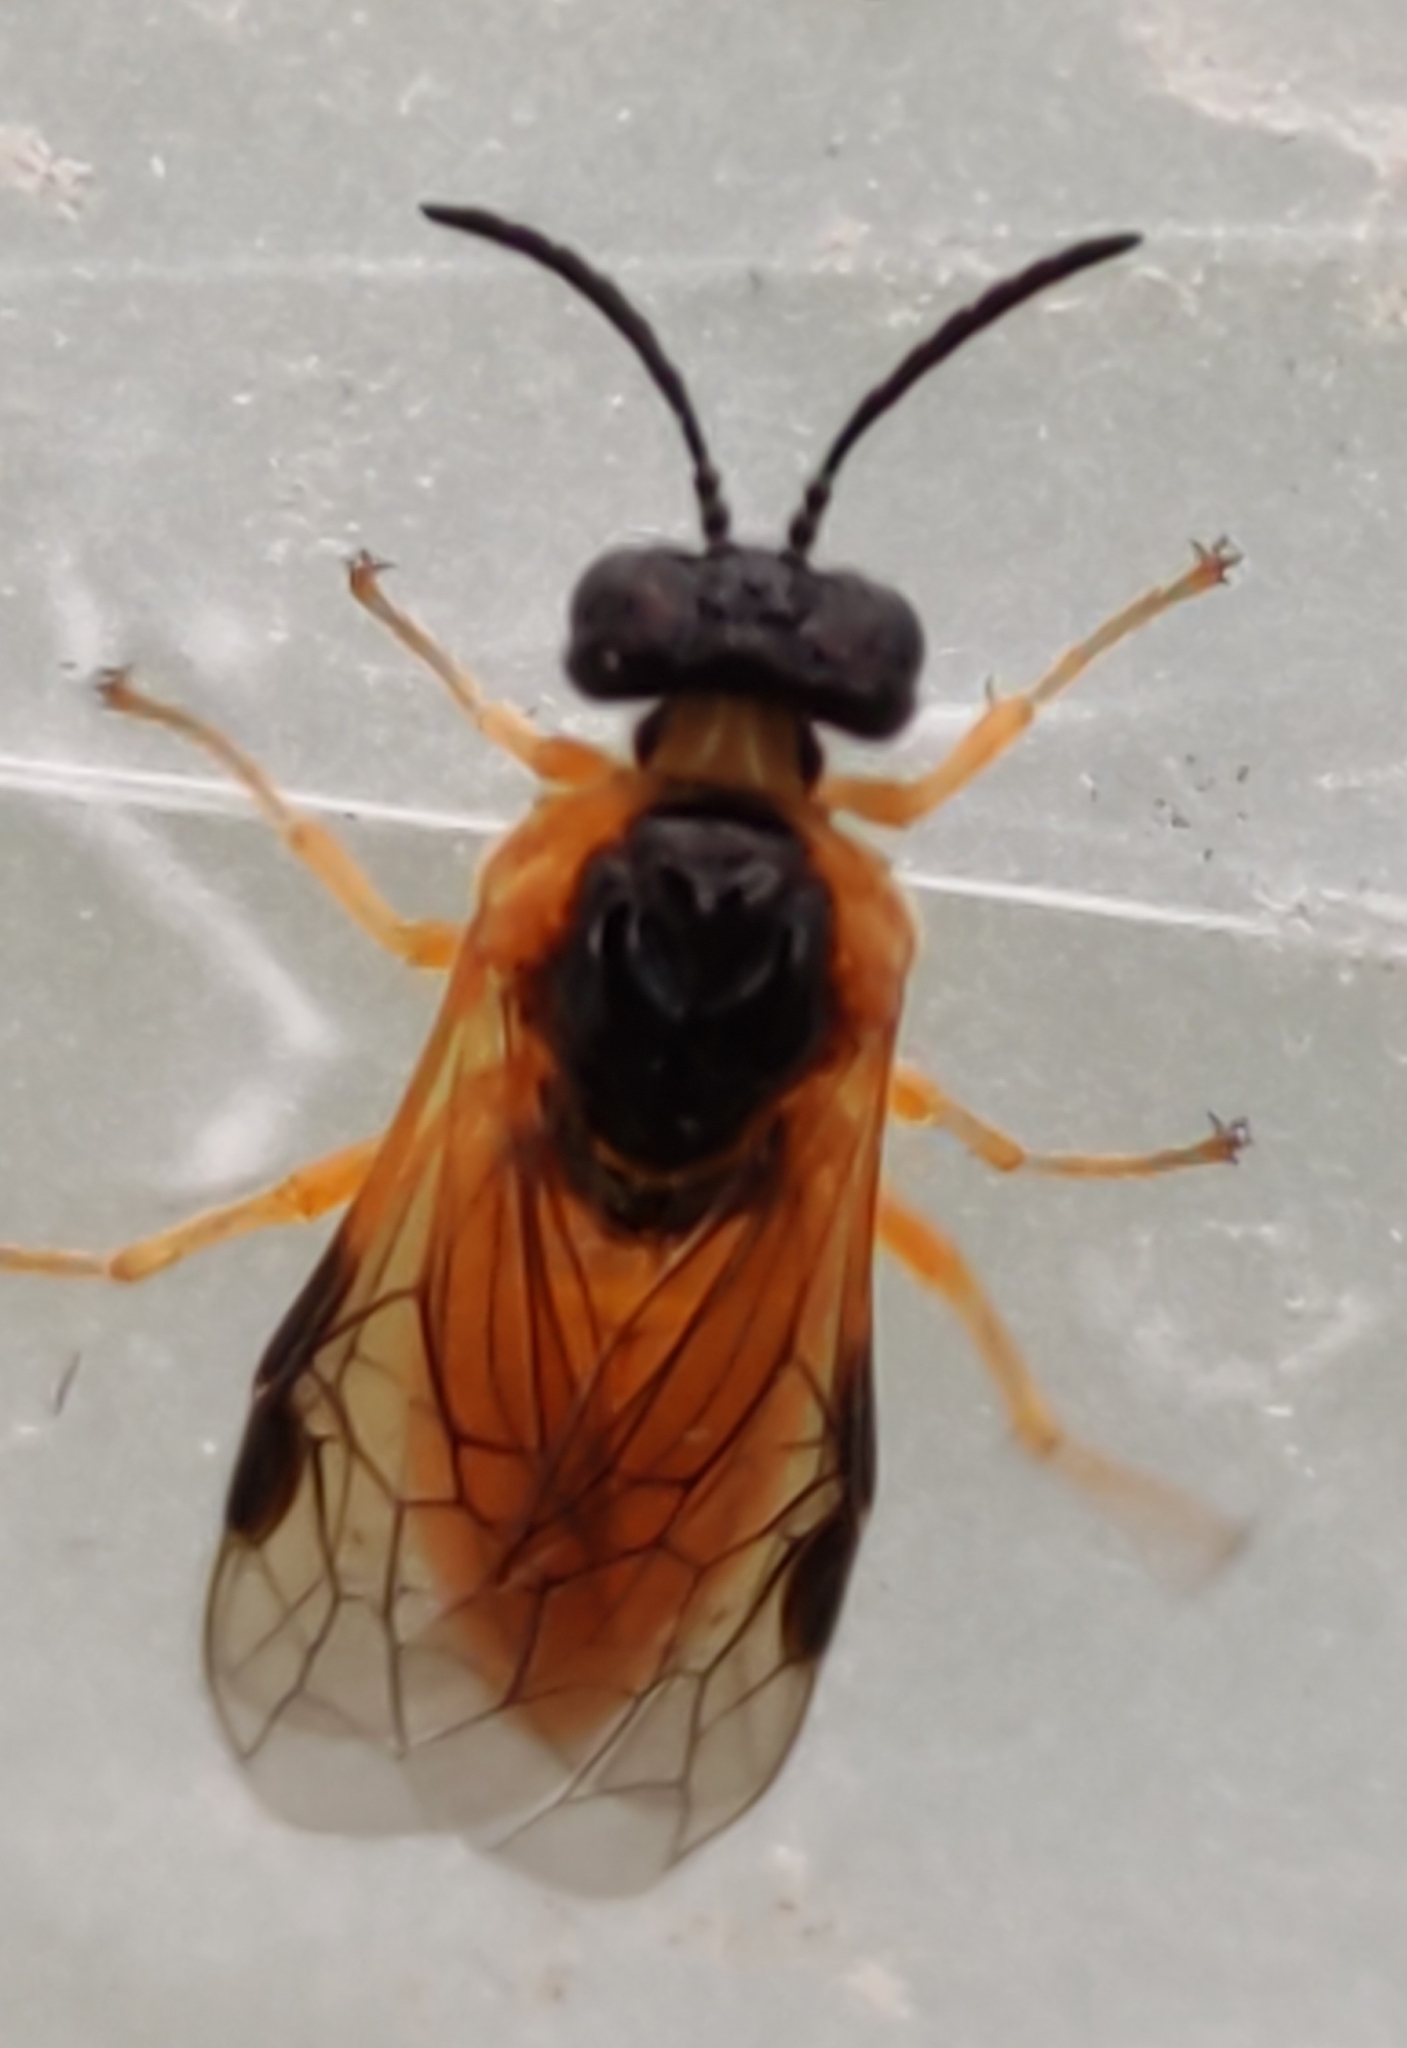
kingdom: Animalia
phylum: Arthropoda
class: Insecta
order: Hymenoptera
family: Tenthredinidae
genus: Selandria
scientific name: Selandria serva
